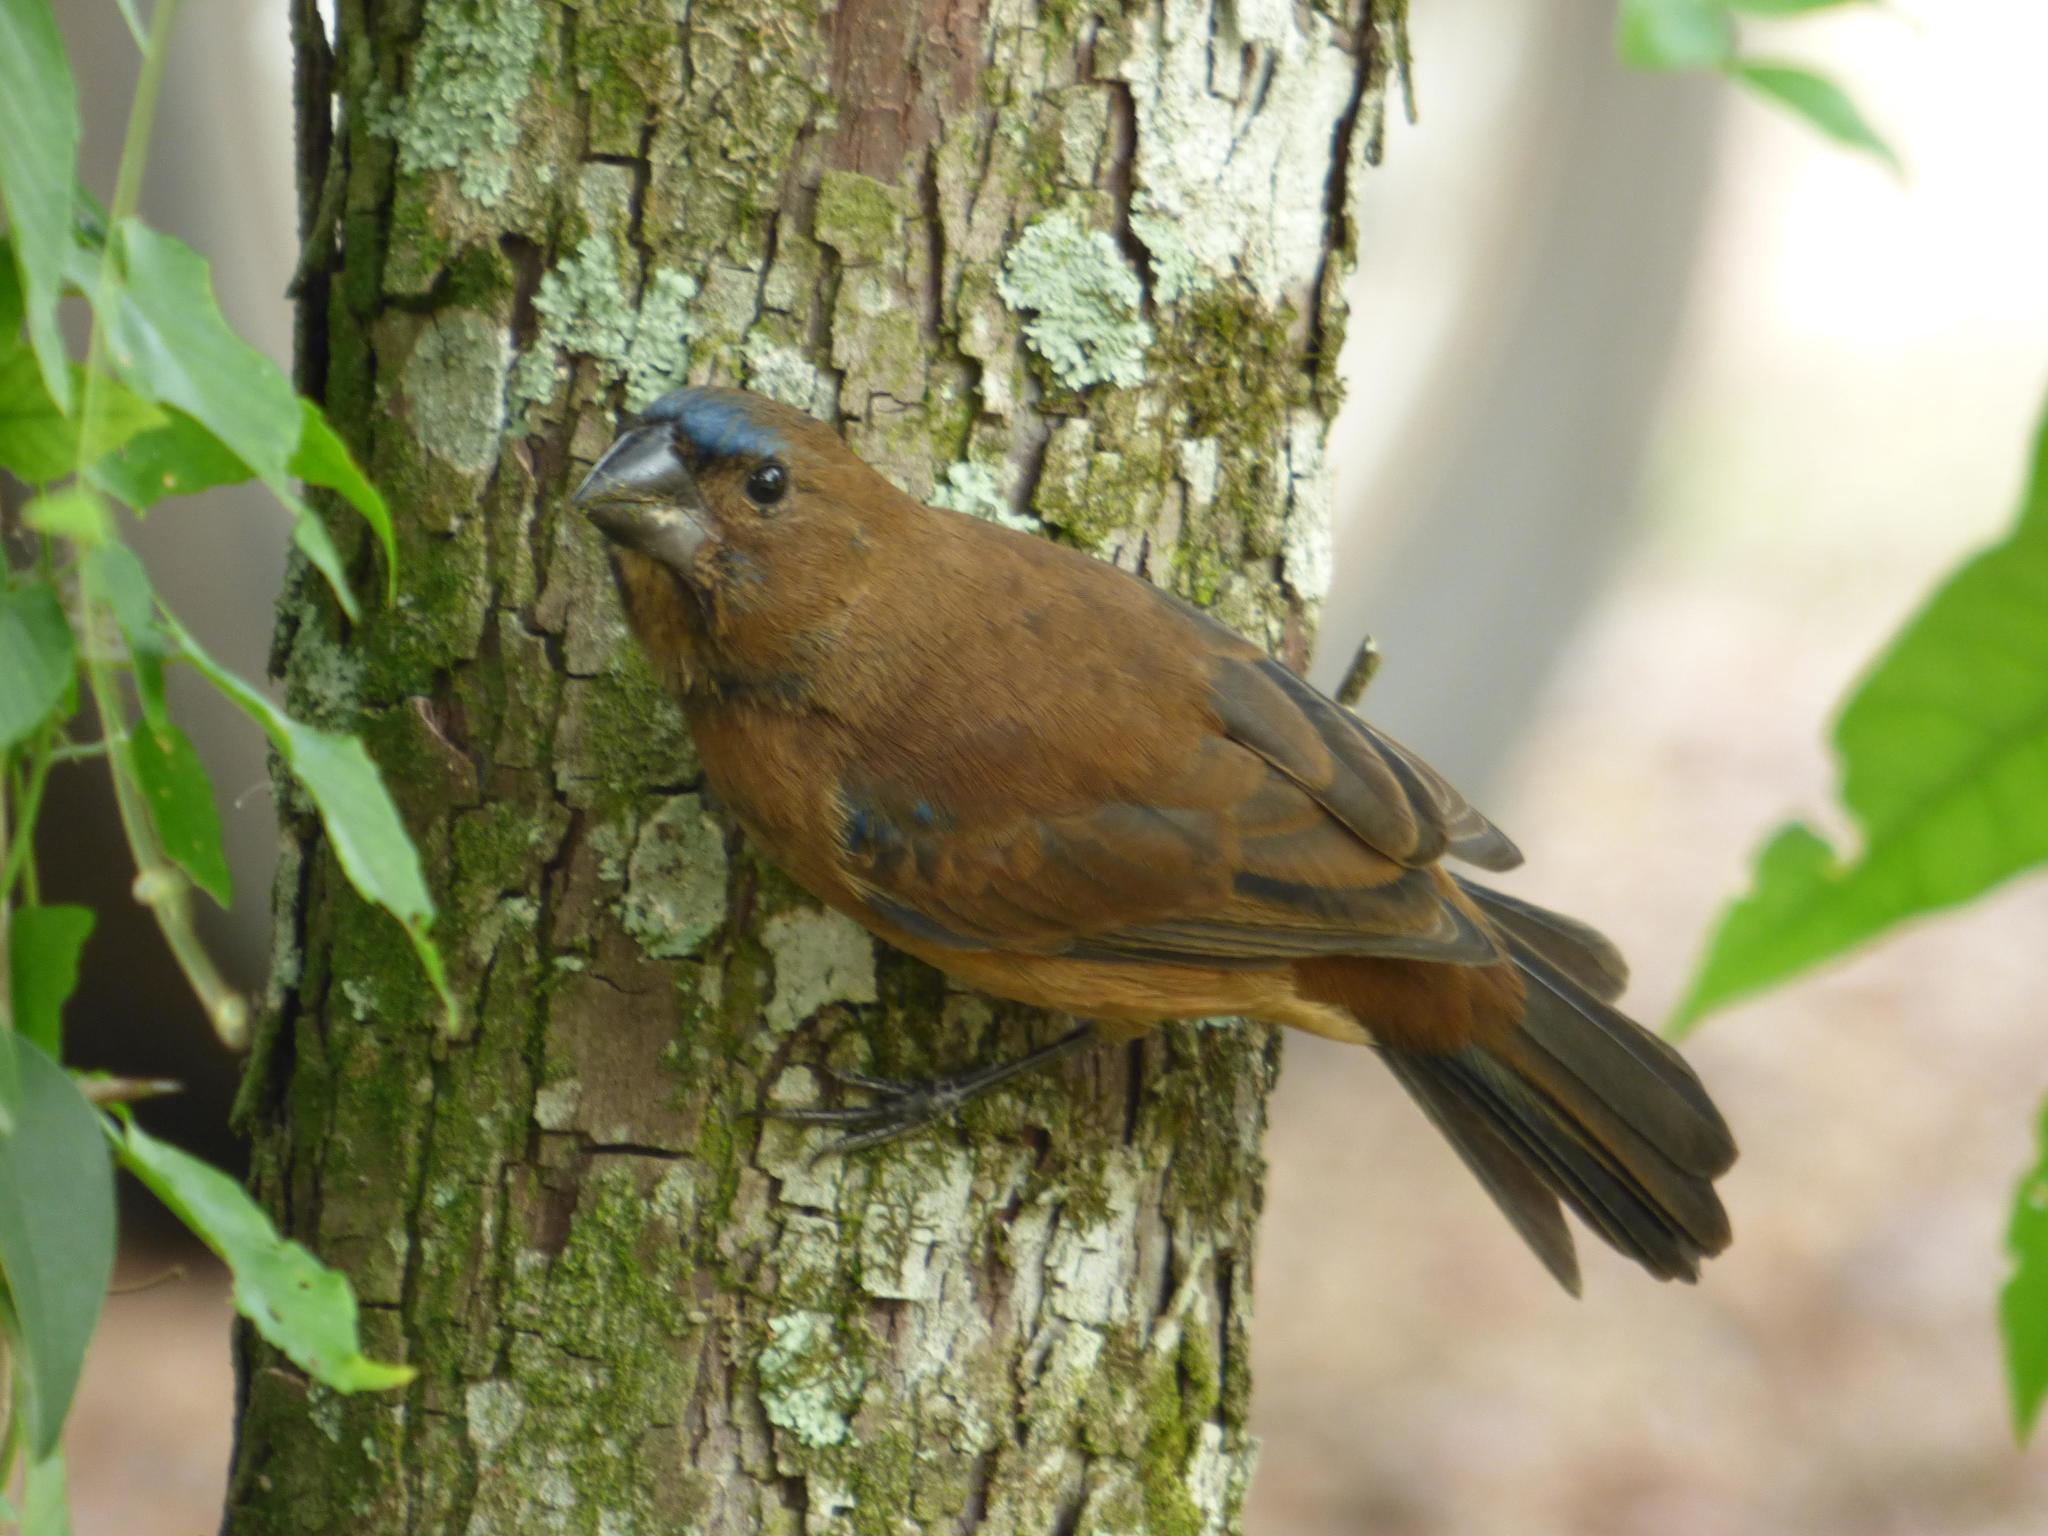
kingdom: Animalia
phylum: Chordata
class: Aves
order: Passeriformes
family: Cardinalidae
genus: Cyanoloxia
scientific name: Cyanoloxia brissonii
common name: Ultramarine grosbeak
